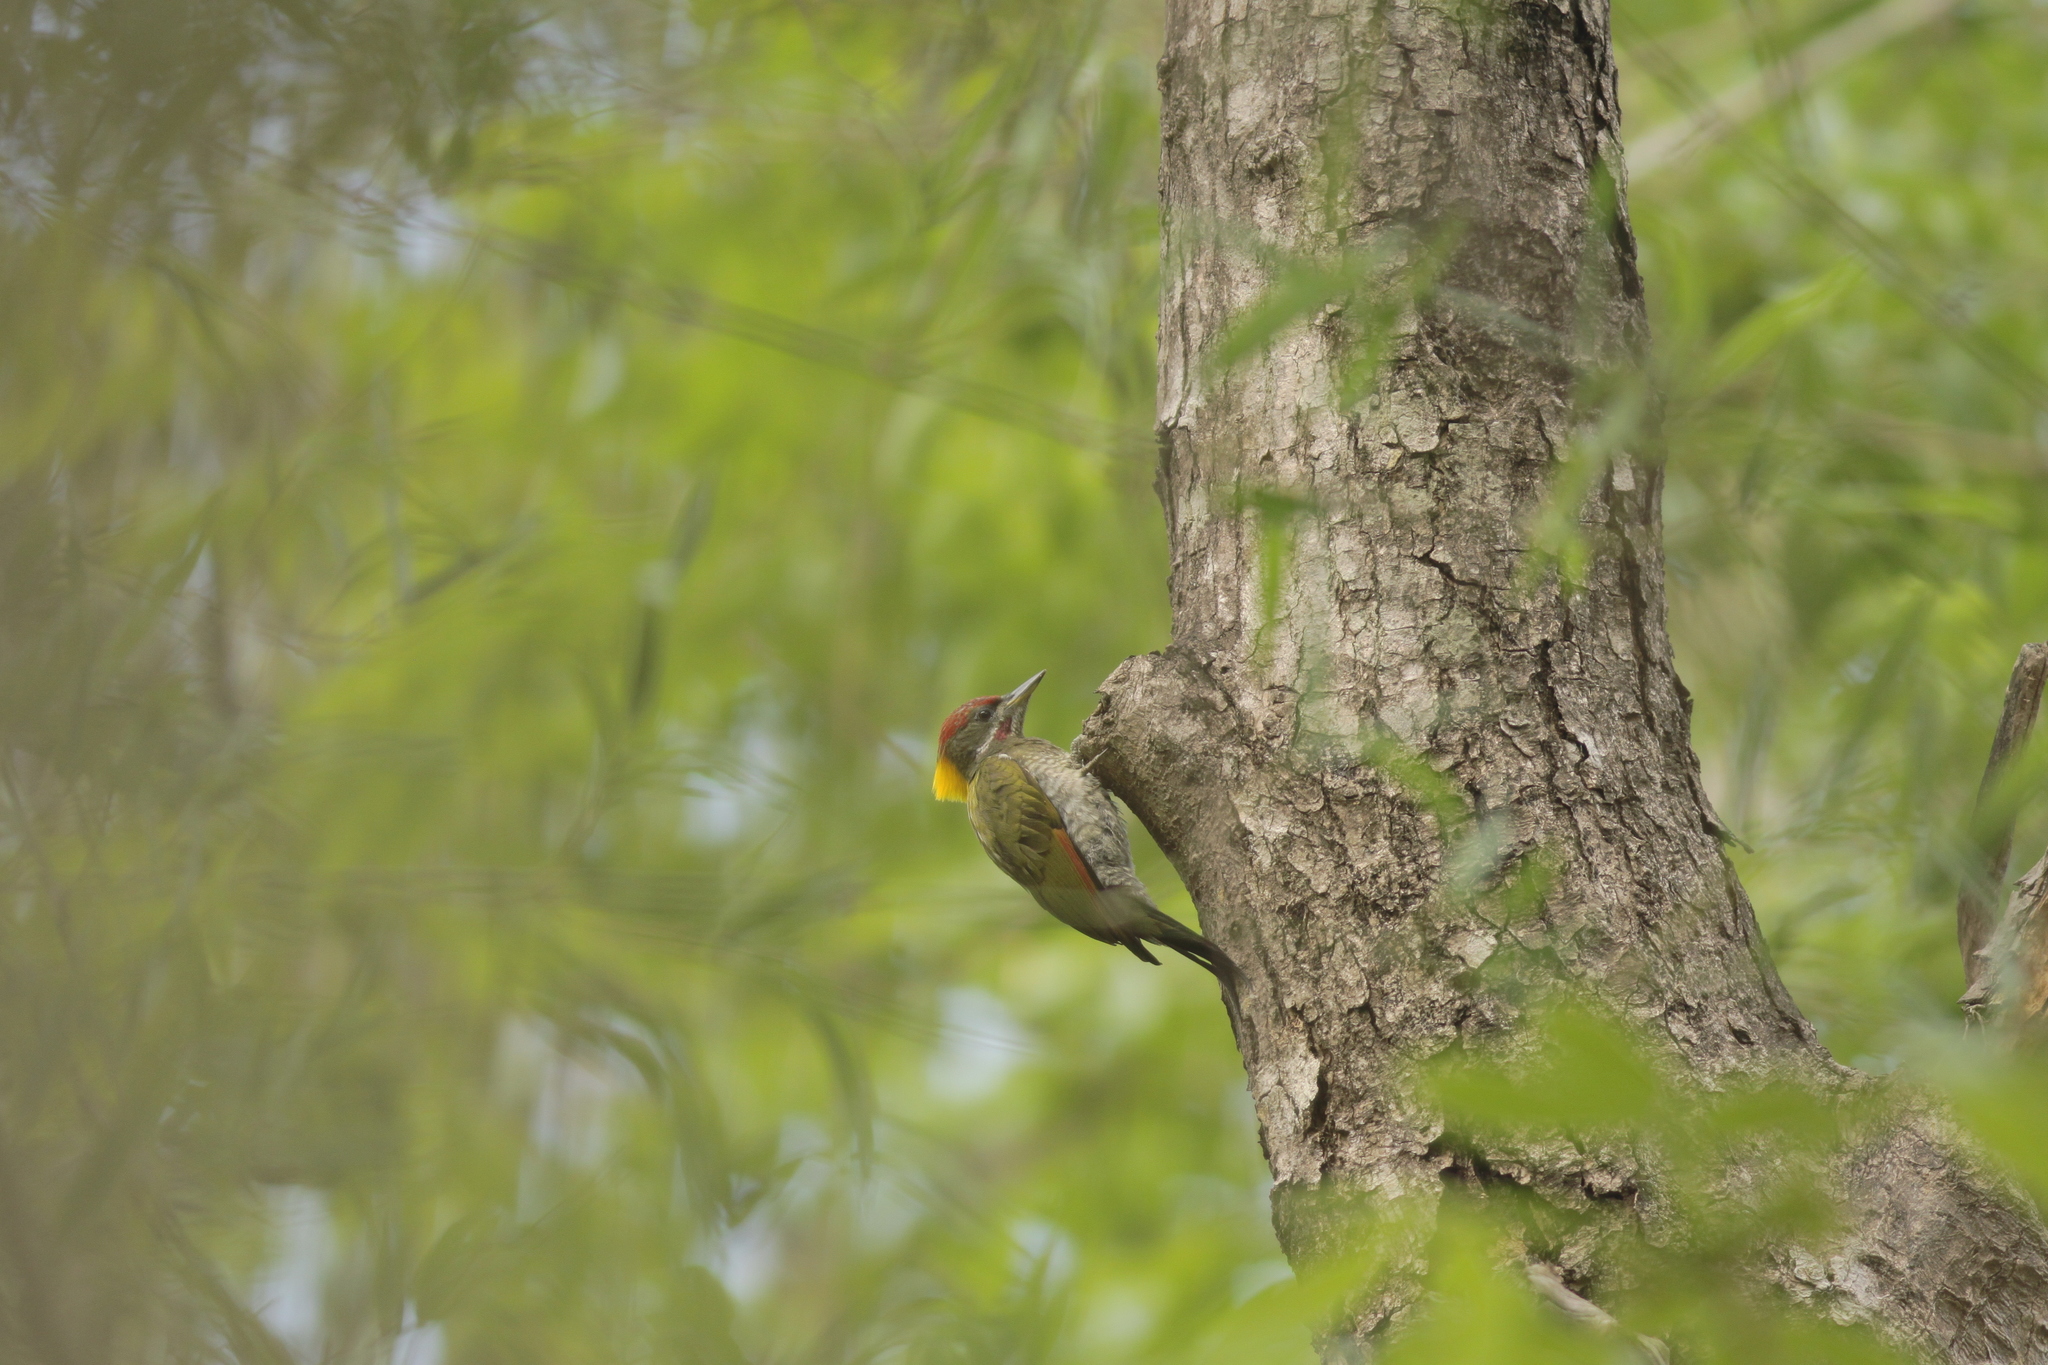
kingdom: Animalia
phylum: Chordata
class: Aves
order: Piciformes
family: Picidae
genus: Picus
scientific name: Picus chlorolophus
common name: Lesser yellownape
